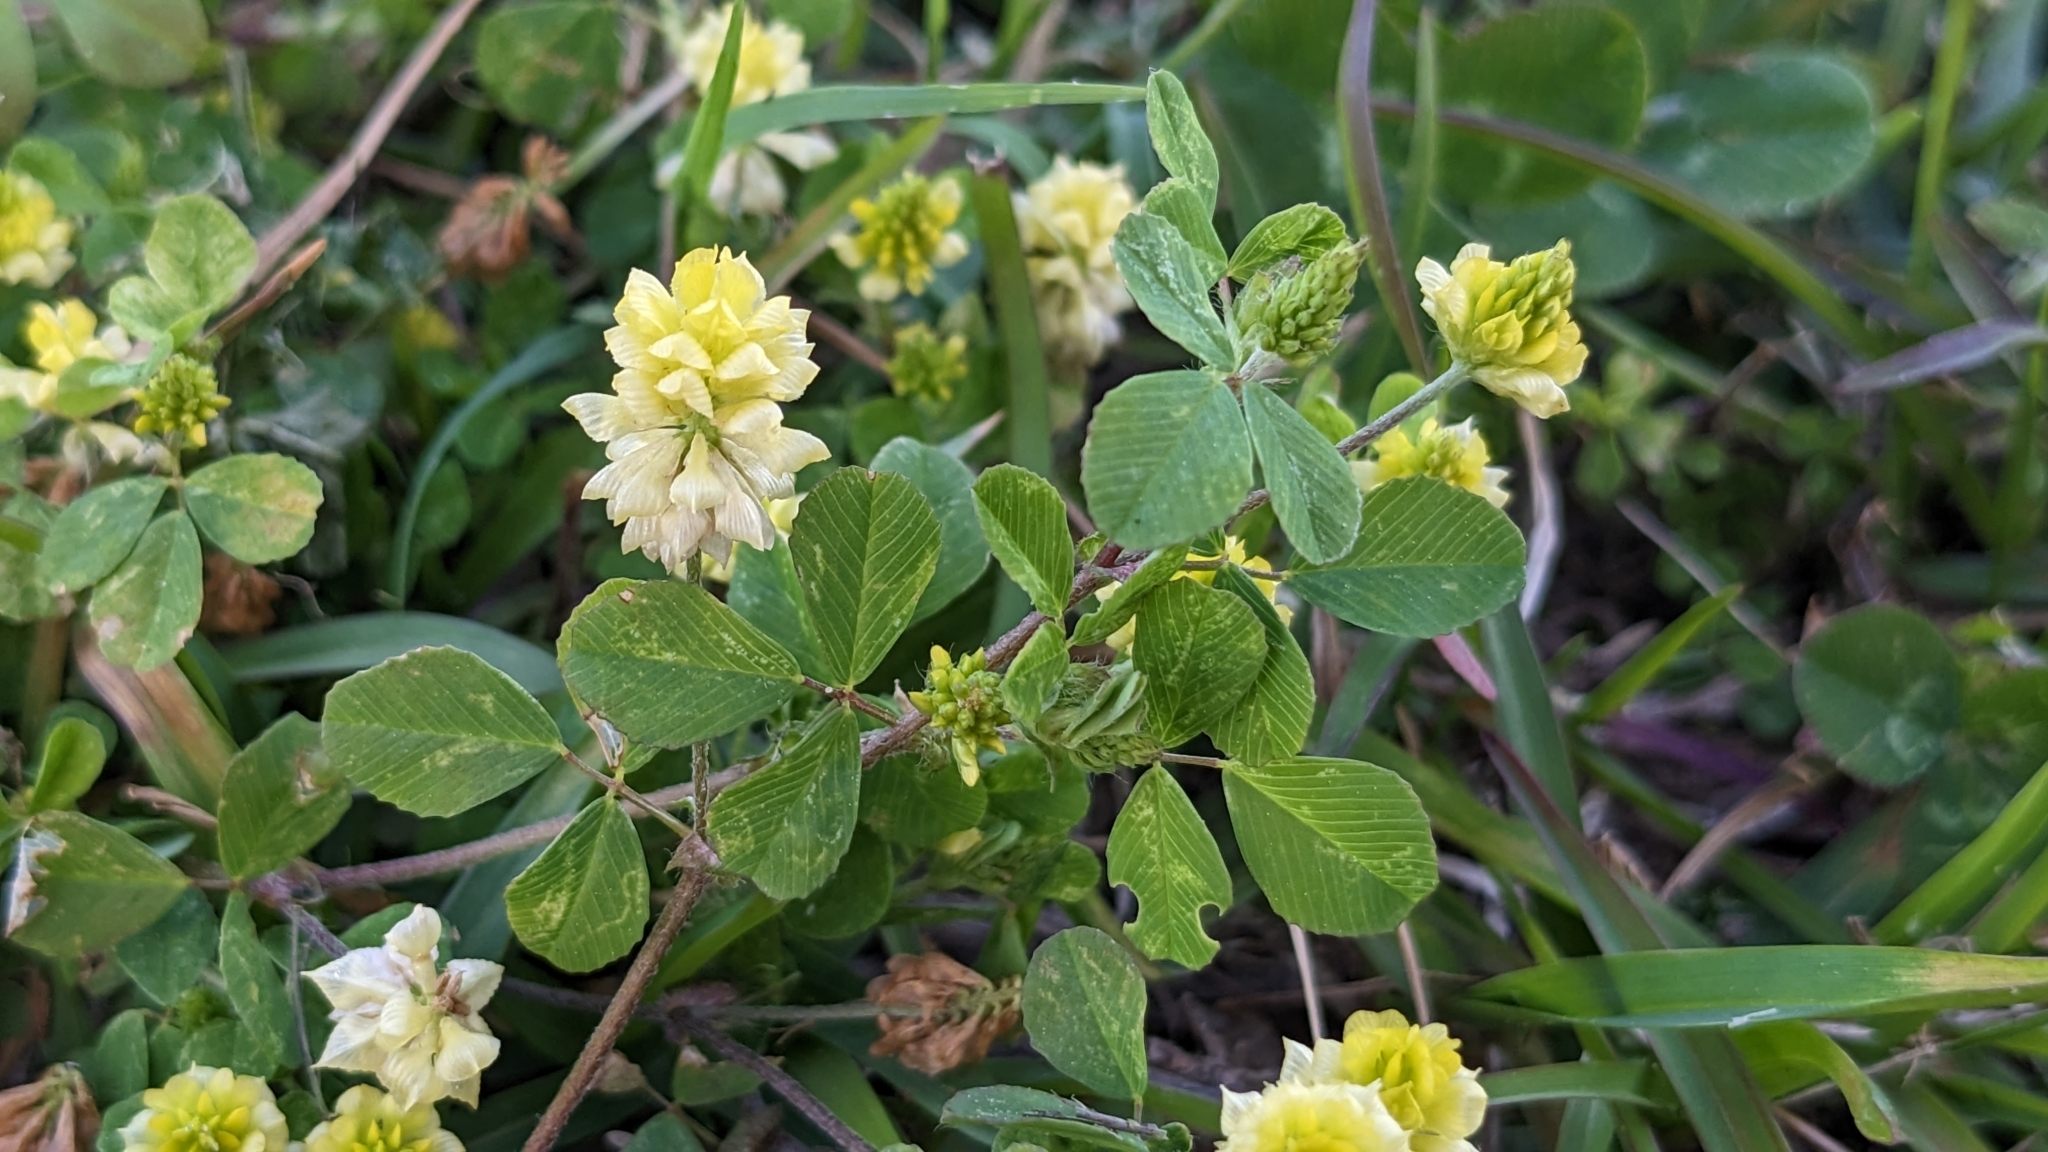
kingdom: Plantae
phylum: Tracheophyta
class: Magnoliopsida
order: Fabales
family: Fabaceae
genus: Trifolium
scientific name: Trifolium campestre
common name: Field clover
